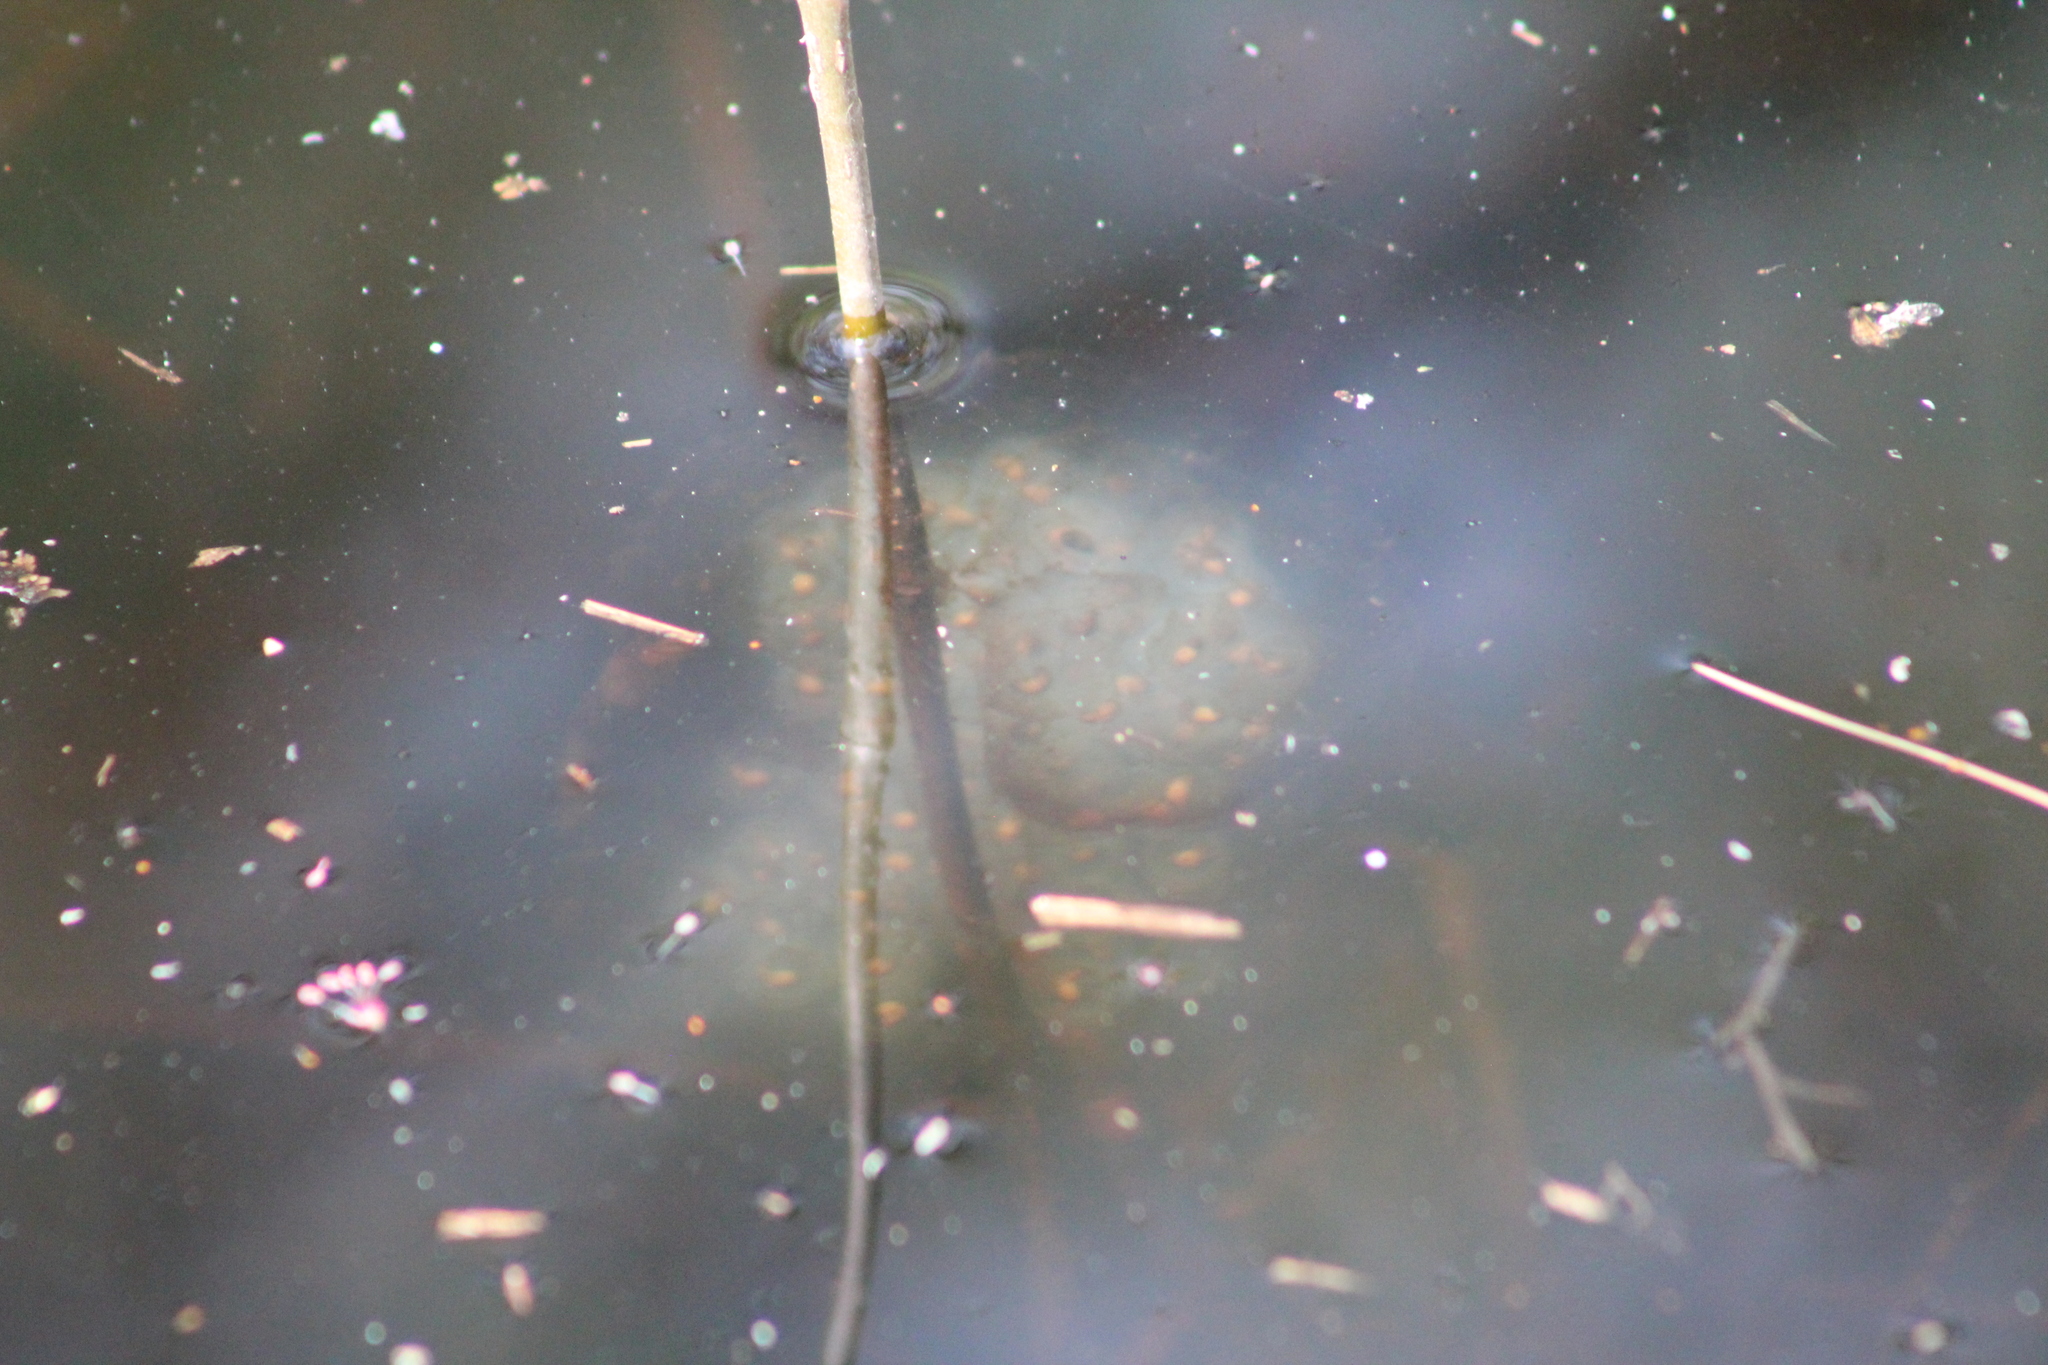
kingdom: Animalia
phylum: Chordata
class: Amphibia
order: Caudata
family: Ambystomatidae
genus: Ambystoma
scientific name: Ambystoma maculatum
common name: Spotted salamander
